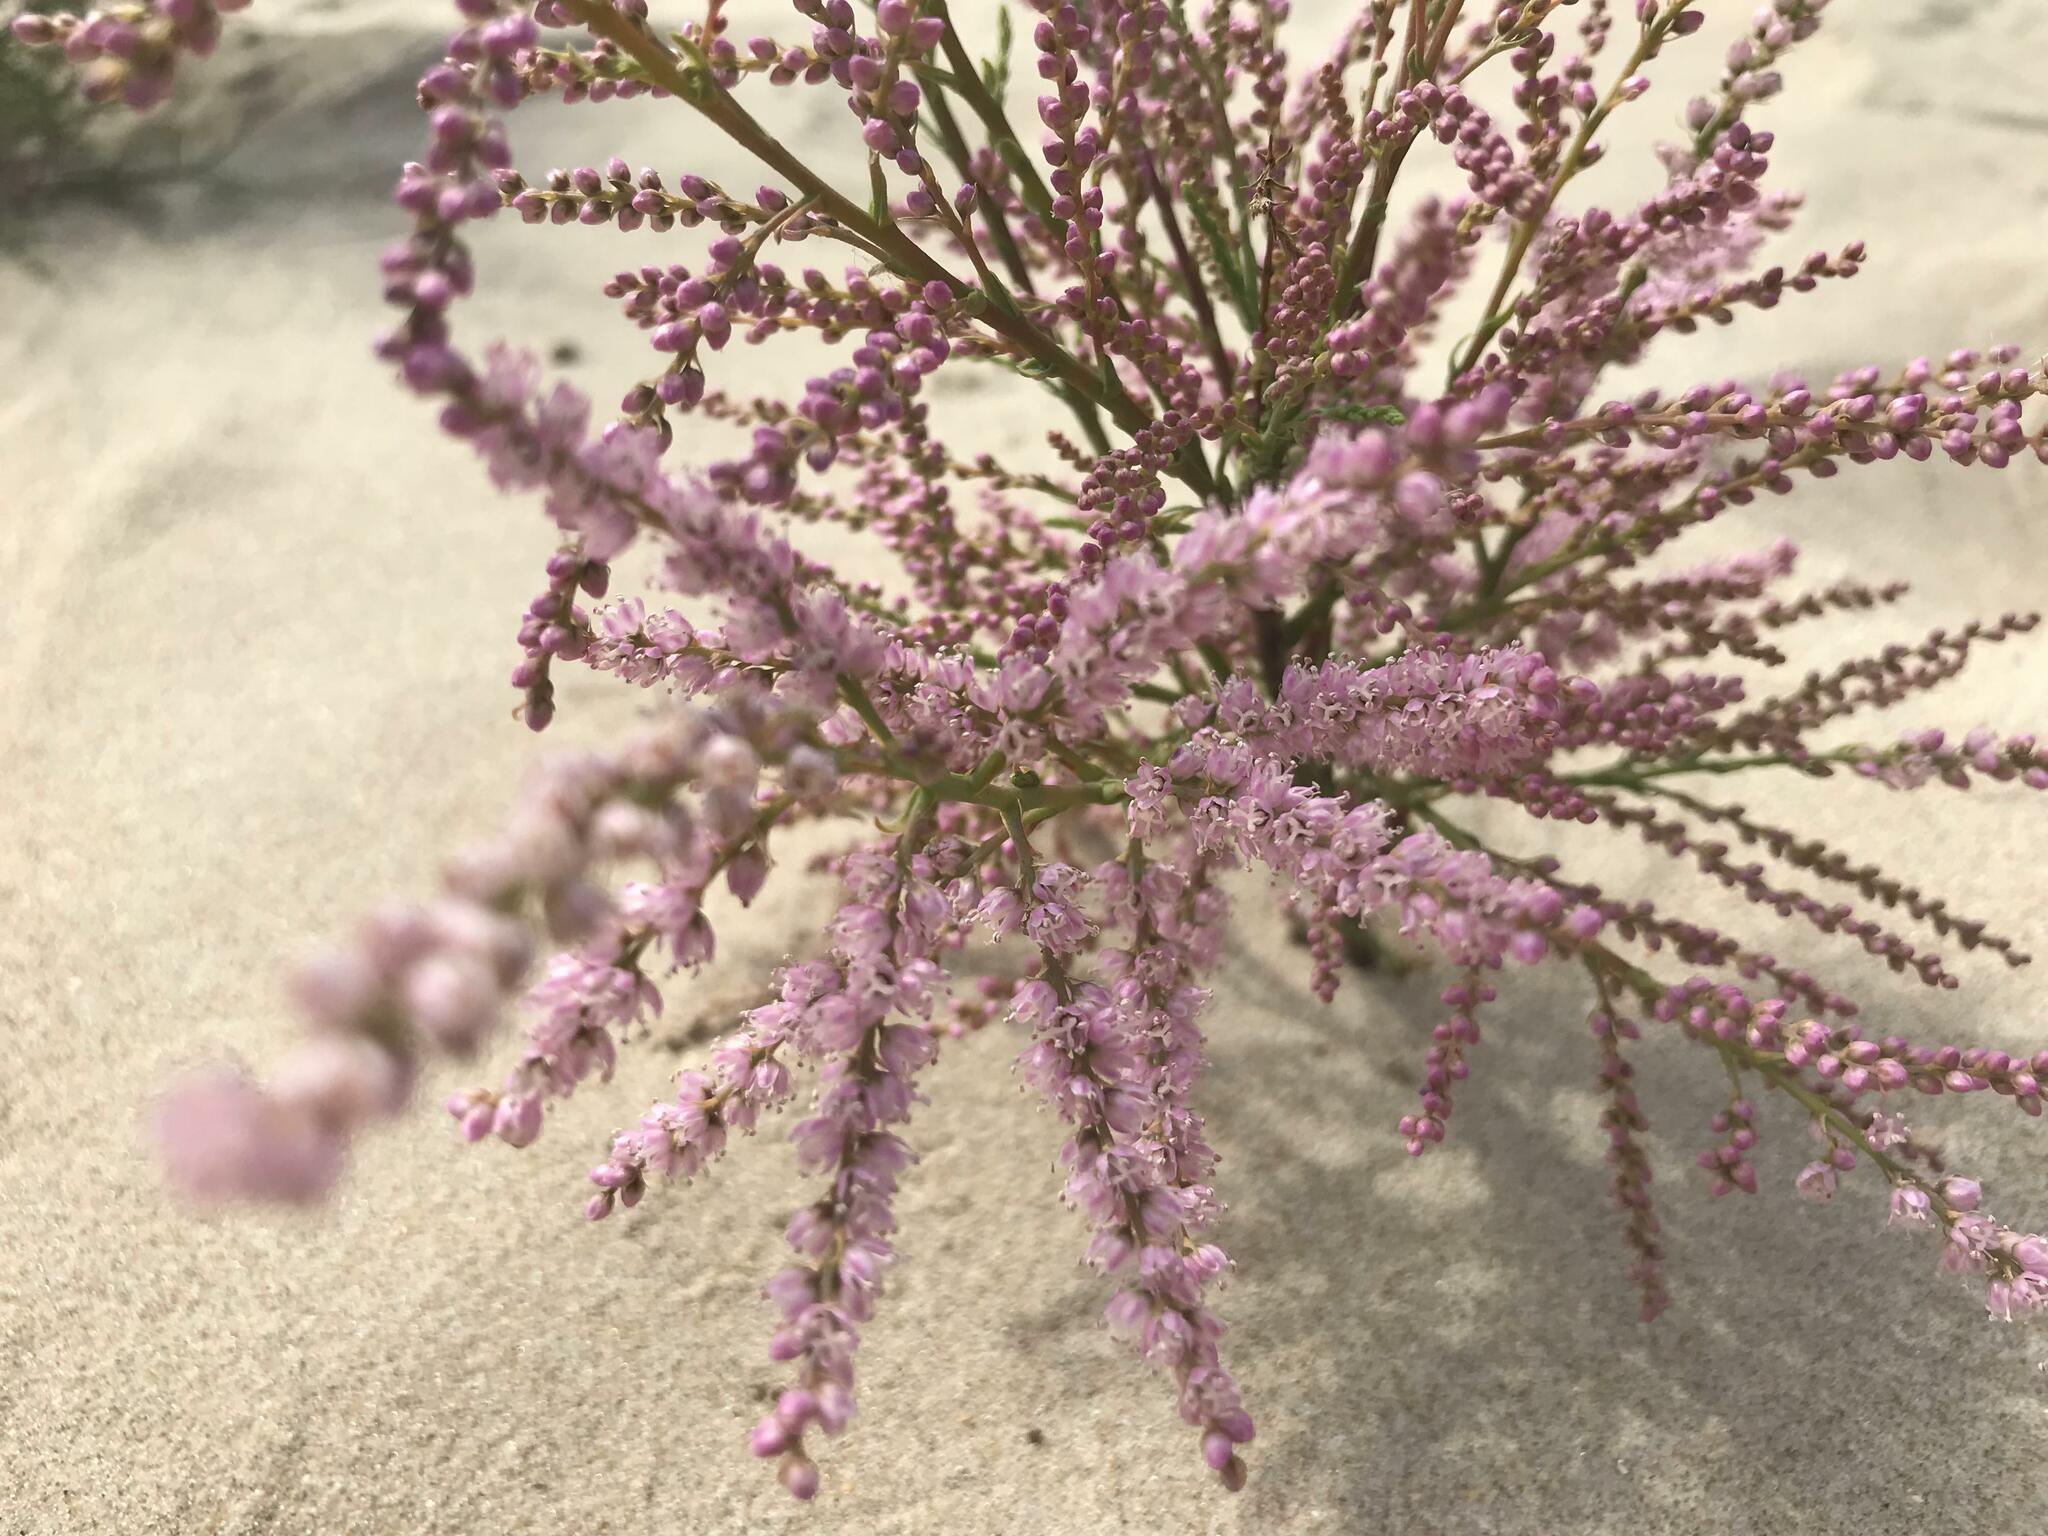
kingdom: Plantae
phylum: Tracheophyta
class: Magnoliopsida
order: Caryophyllales
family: Tamaricaceae
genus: Tamarix
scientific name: Tamarix ramosissima
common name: Pink tamarisk
